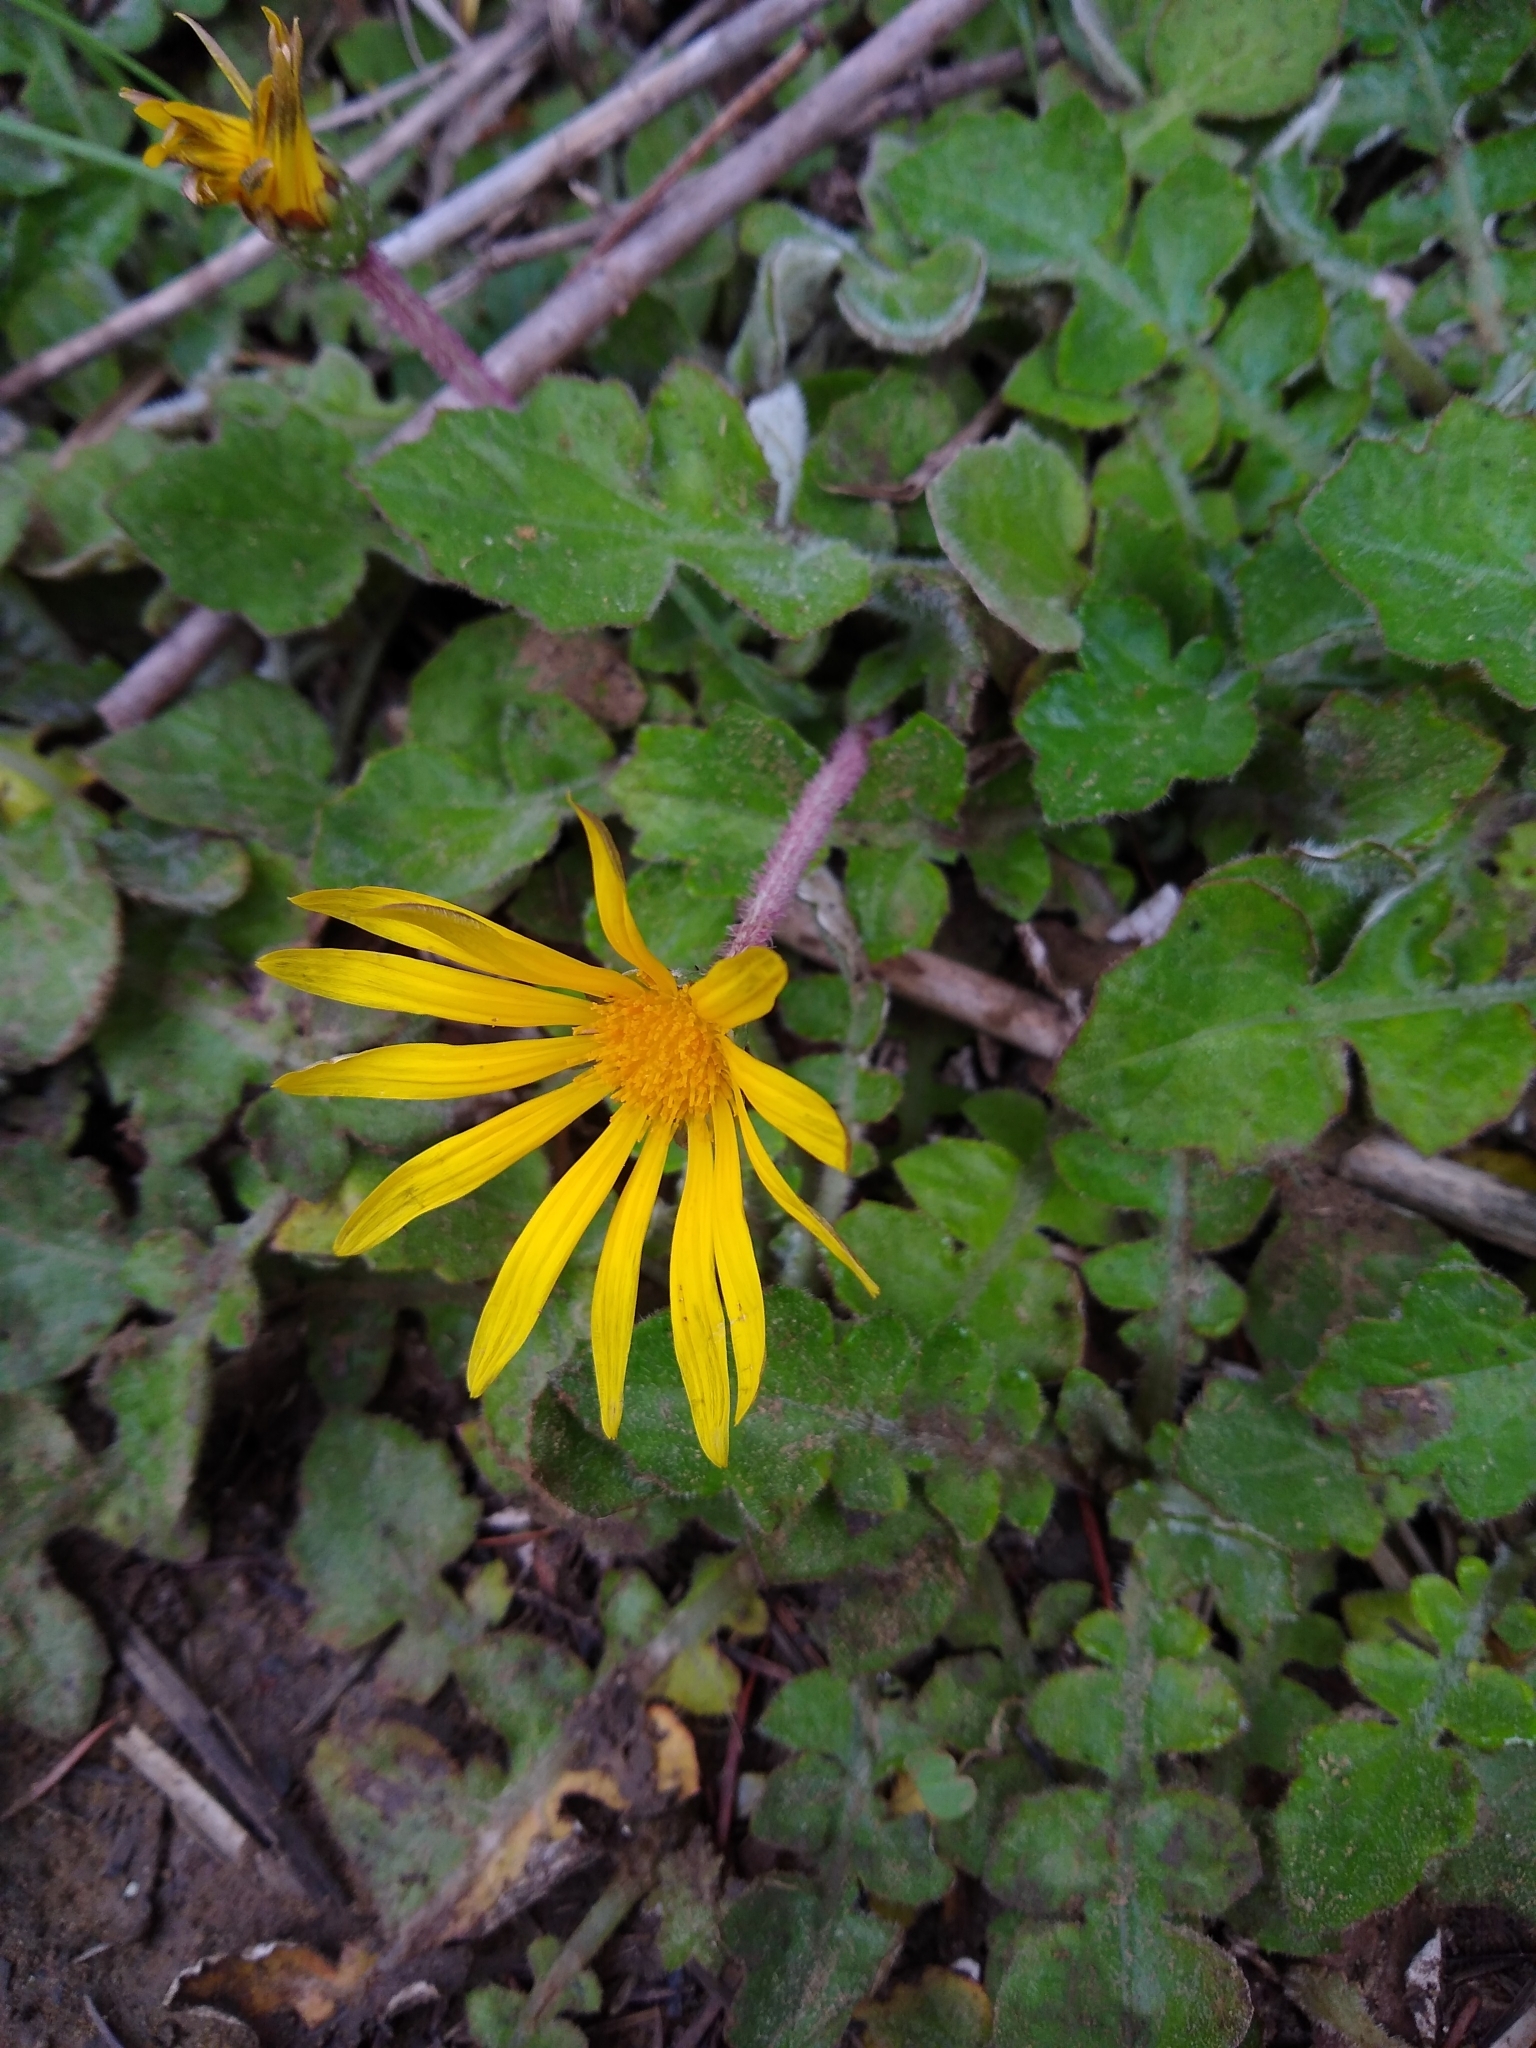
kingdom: Plantae
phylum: Tracheophyta
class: Magnoliopsida
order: Asterales
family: Asteraceae
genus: Arctotheca
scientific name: Arctotheca prostrata
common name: Capeweed
